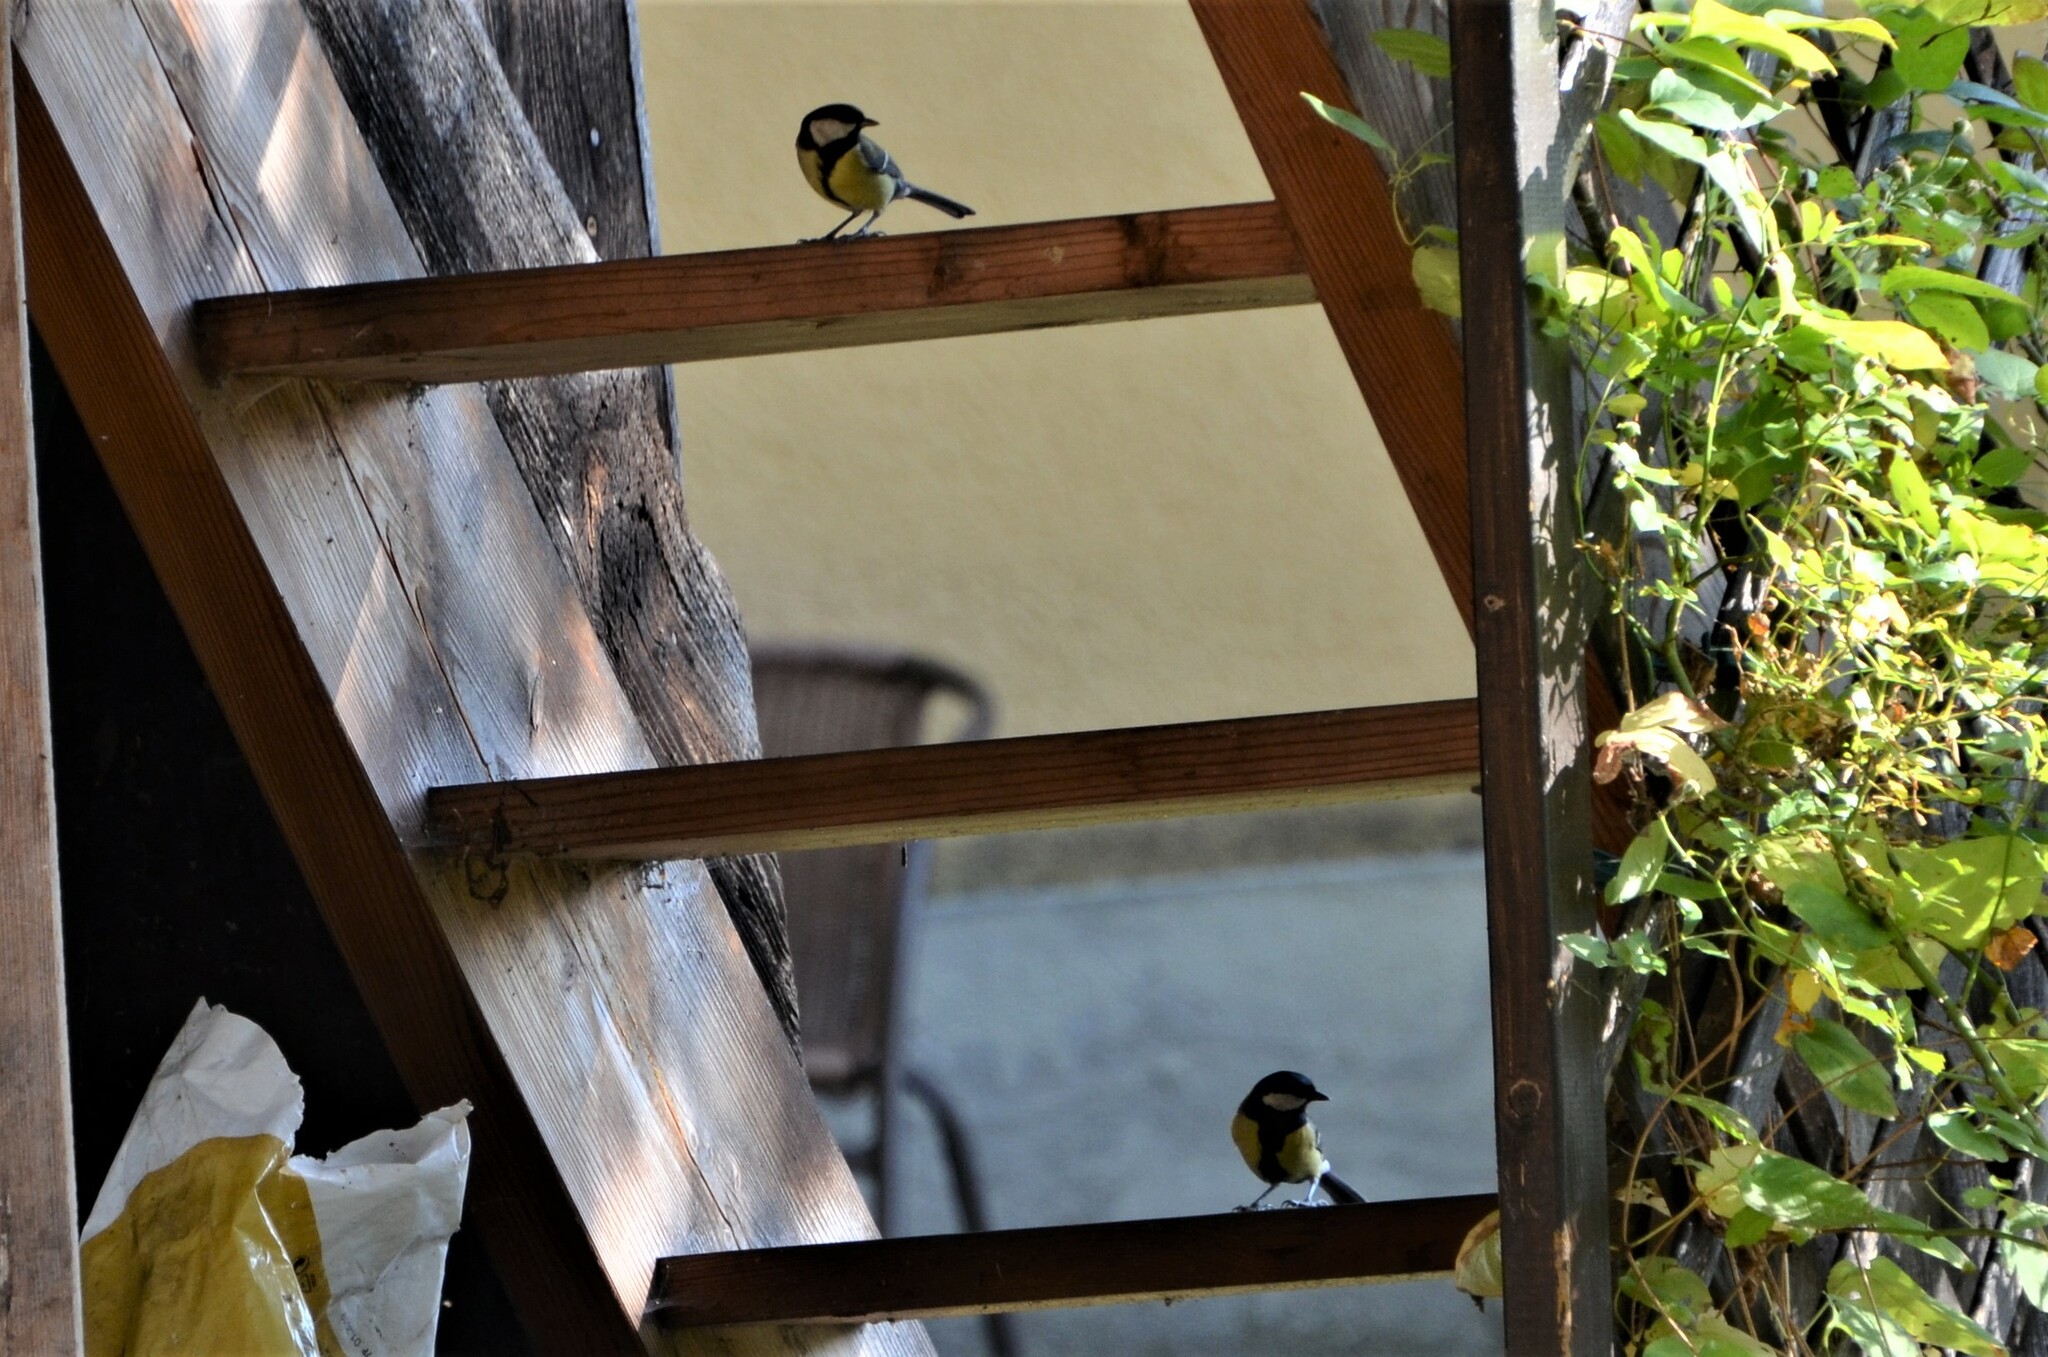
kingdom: Animalia
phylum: Chordata
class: Aves
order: Passeriformes
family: Paridae
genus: Parus
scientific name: Parus major
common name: Great tit
